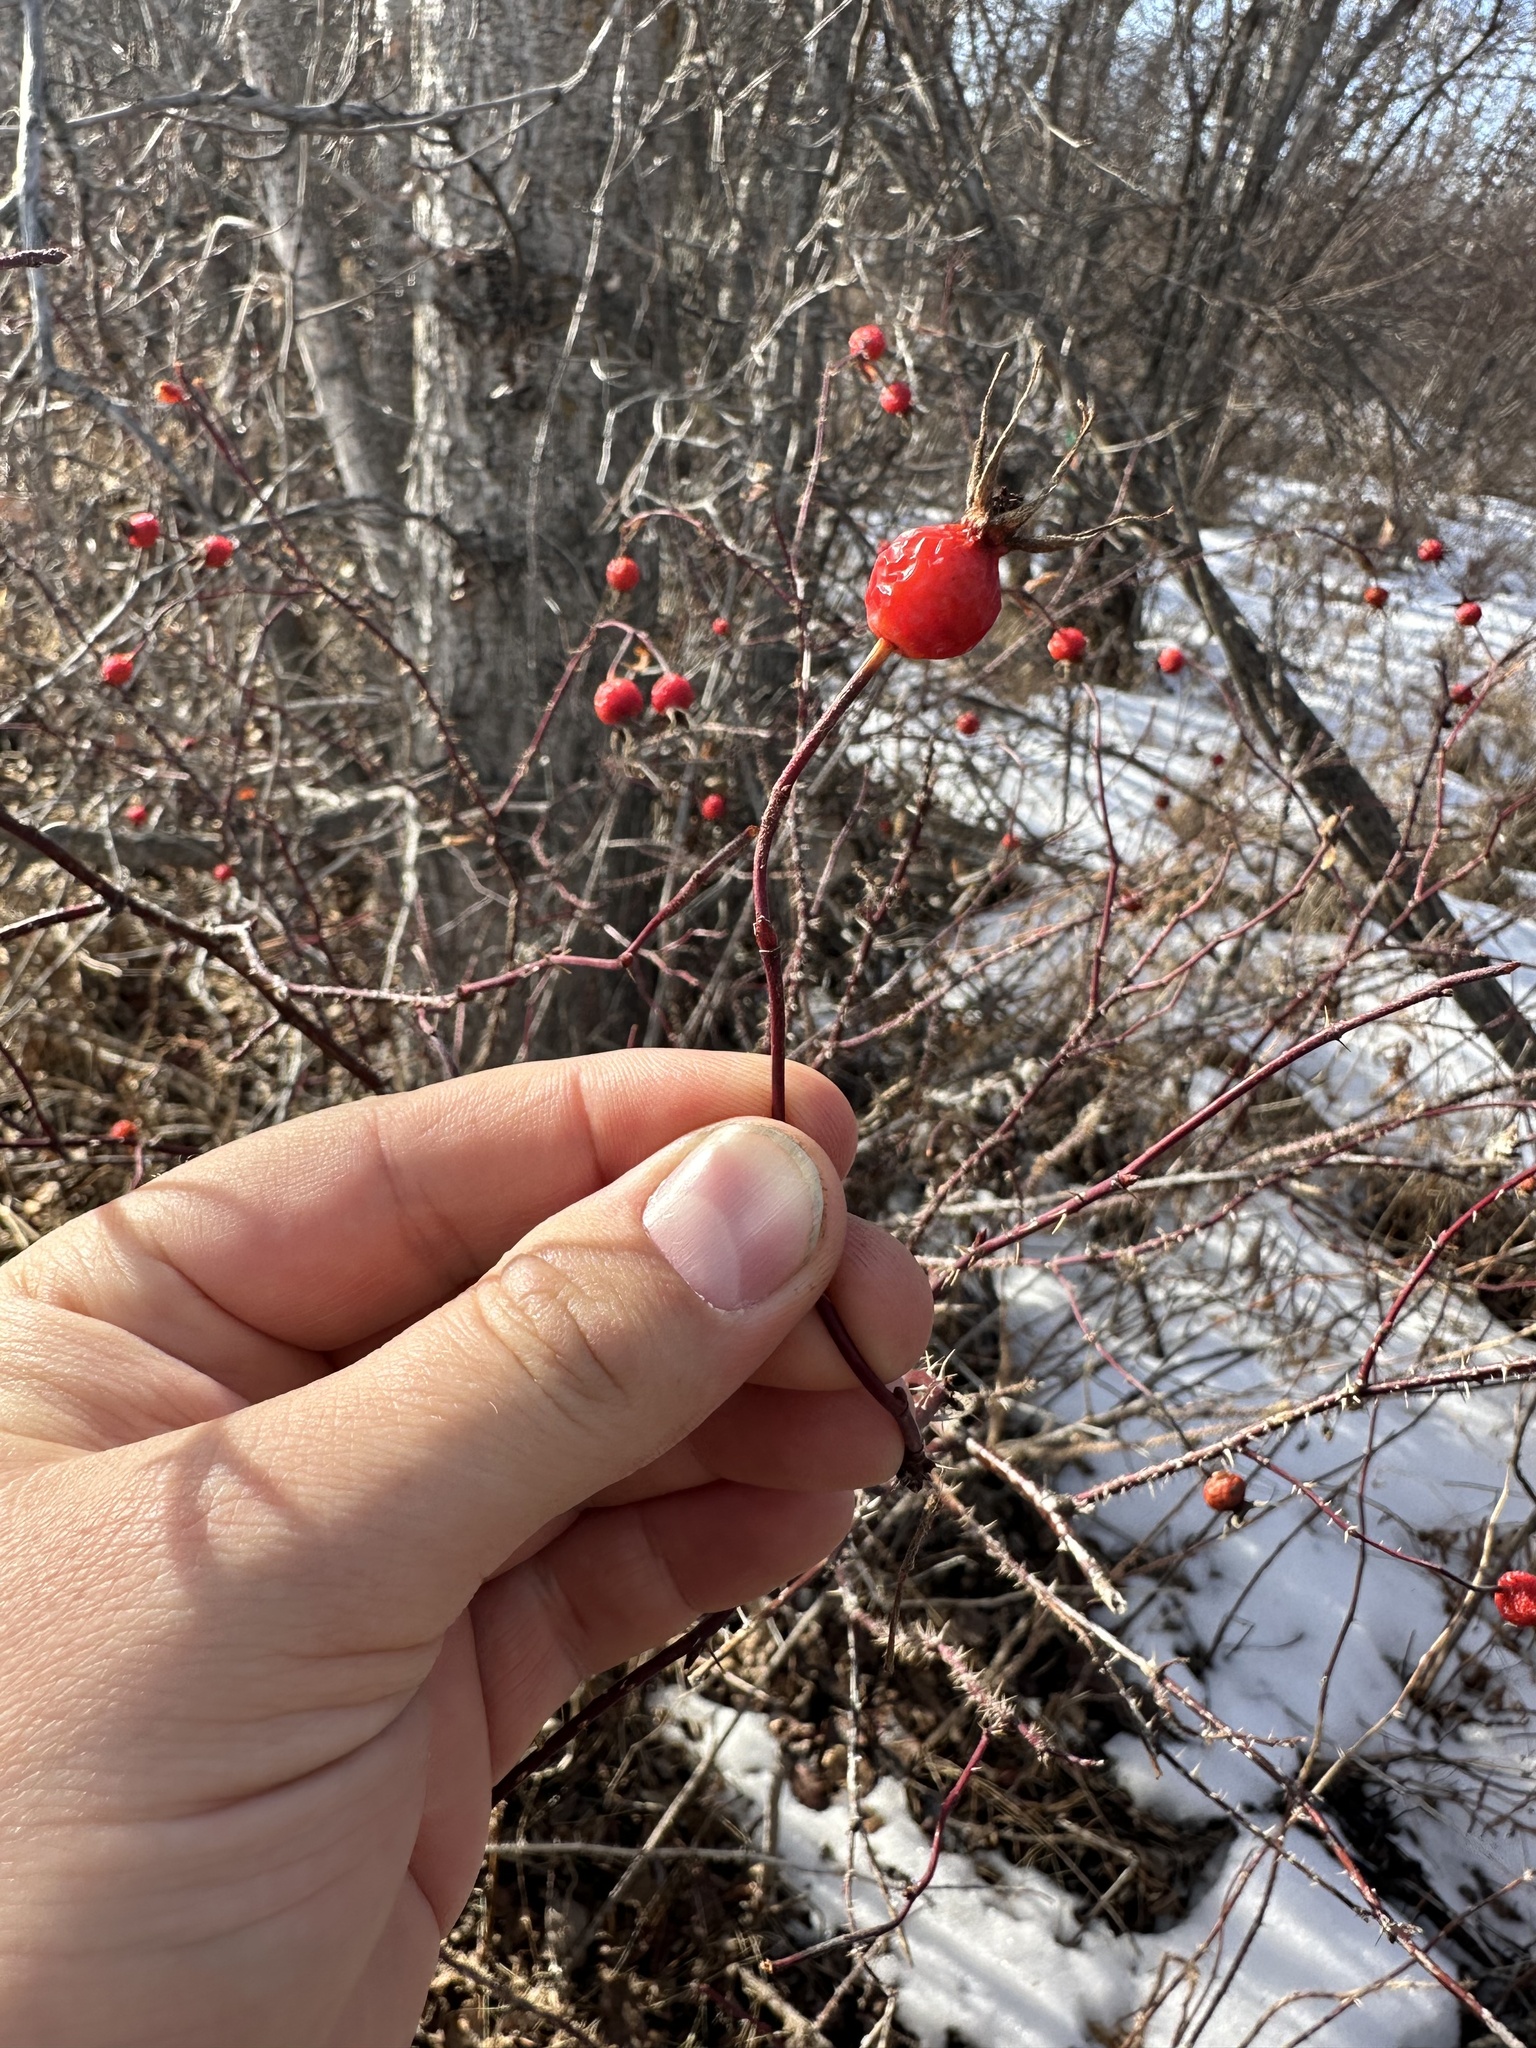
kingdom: Plantae
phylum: Tracheophyta
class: Magnoliopsida
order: Rosales
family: Rosaceae
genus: Rosa
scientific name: Rosa woodsii
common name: Woods's rose
